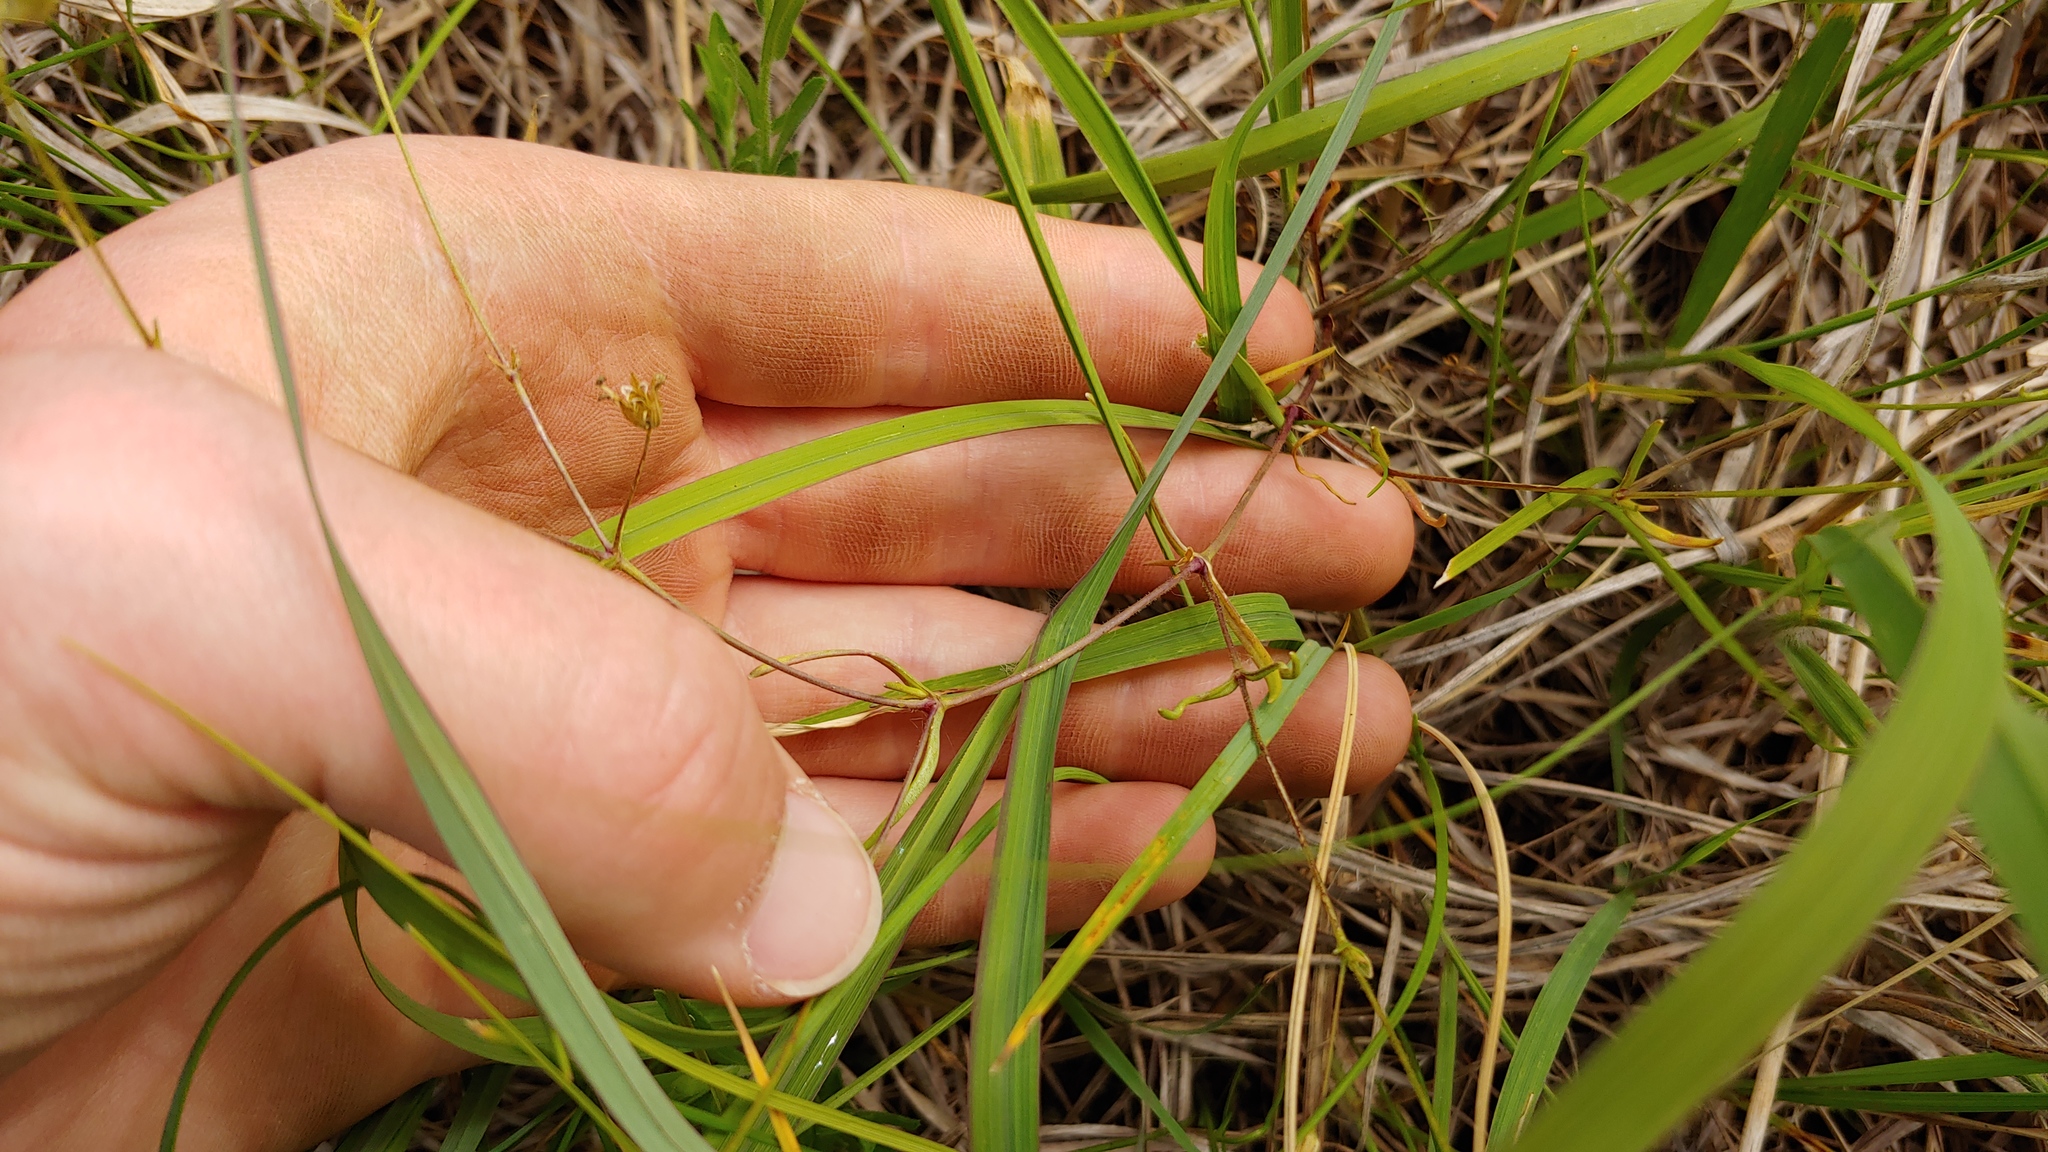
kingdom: Plantae
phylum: Tracheophyta
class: Magnoliopsida
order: Caryophyllales
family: Caryophyllaceae
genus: Mononeuria
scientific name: Mononeuria patula
